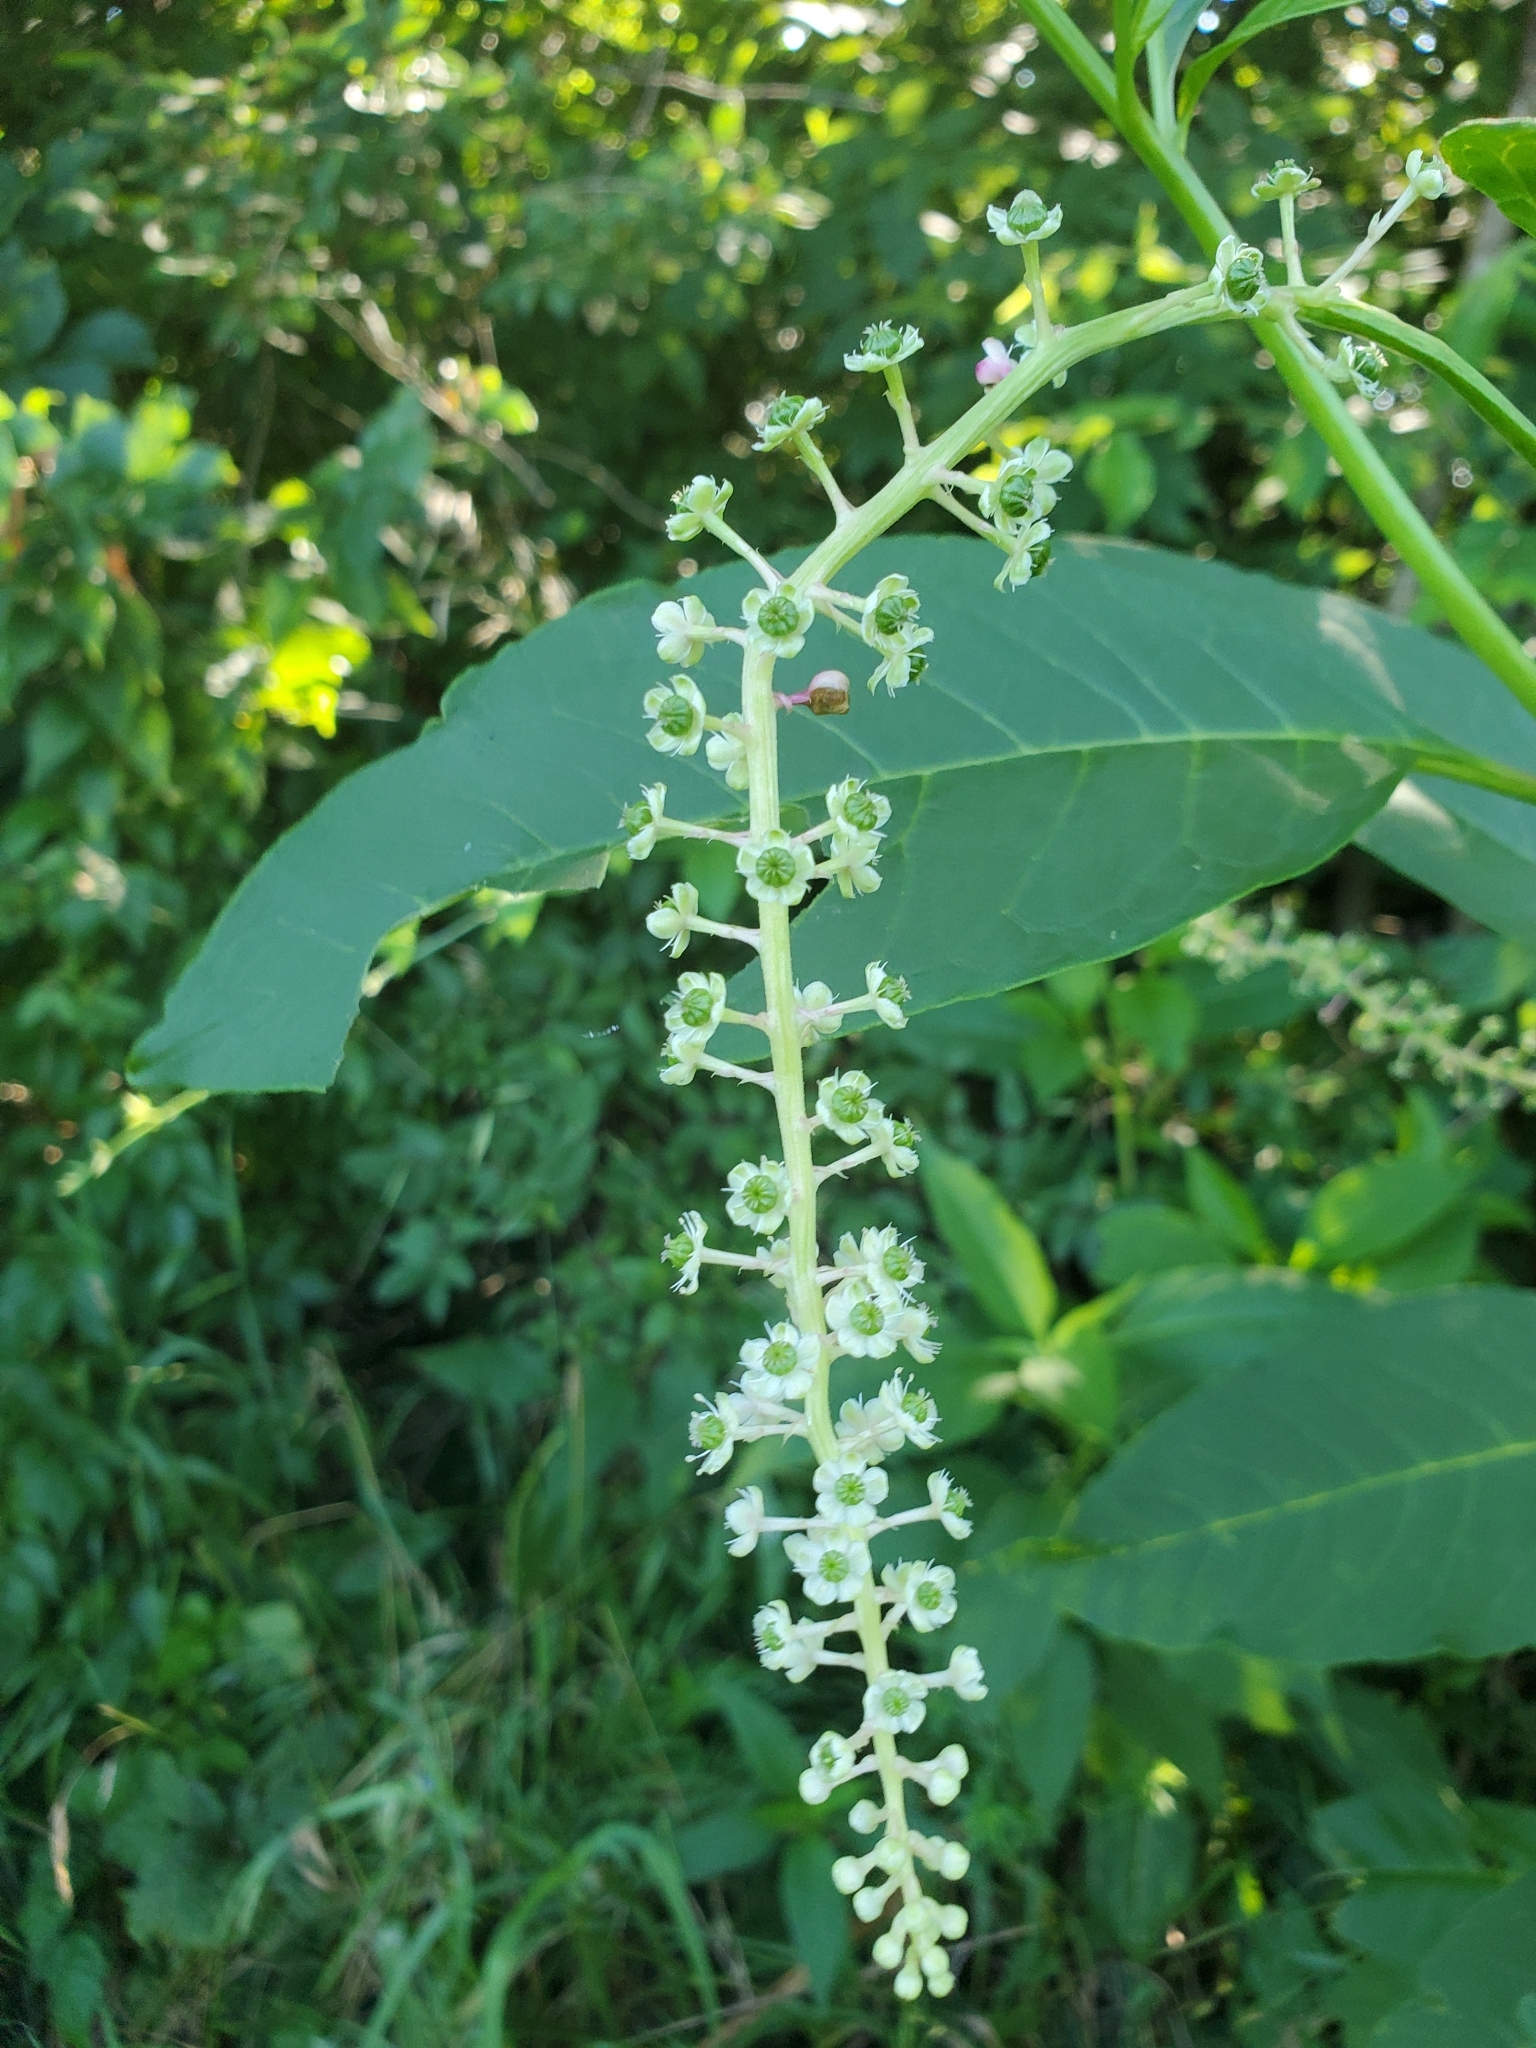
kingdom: Plantae
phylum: Tracheophyta
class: Magnoliopsida
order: Caryophyllales
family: Phytolaccaceae
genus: Phytolacca
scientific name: Phytolacca americana
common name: American pokeweed
